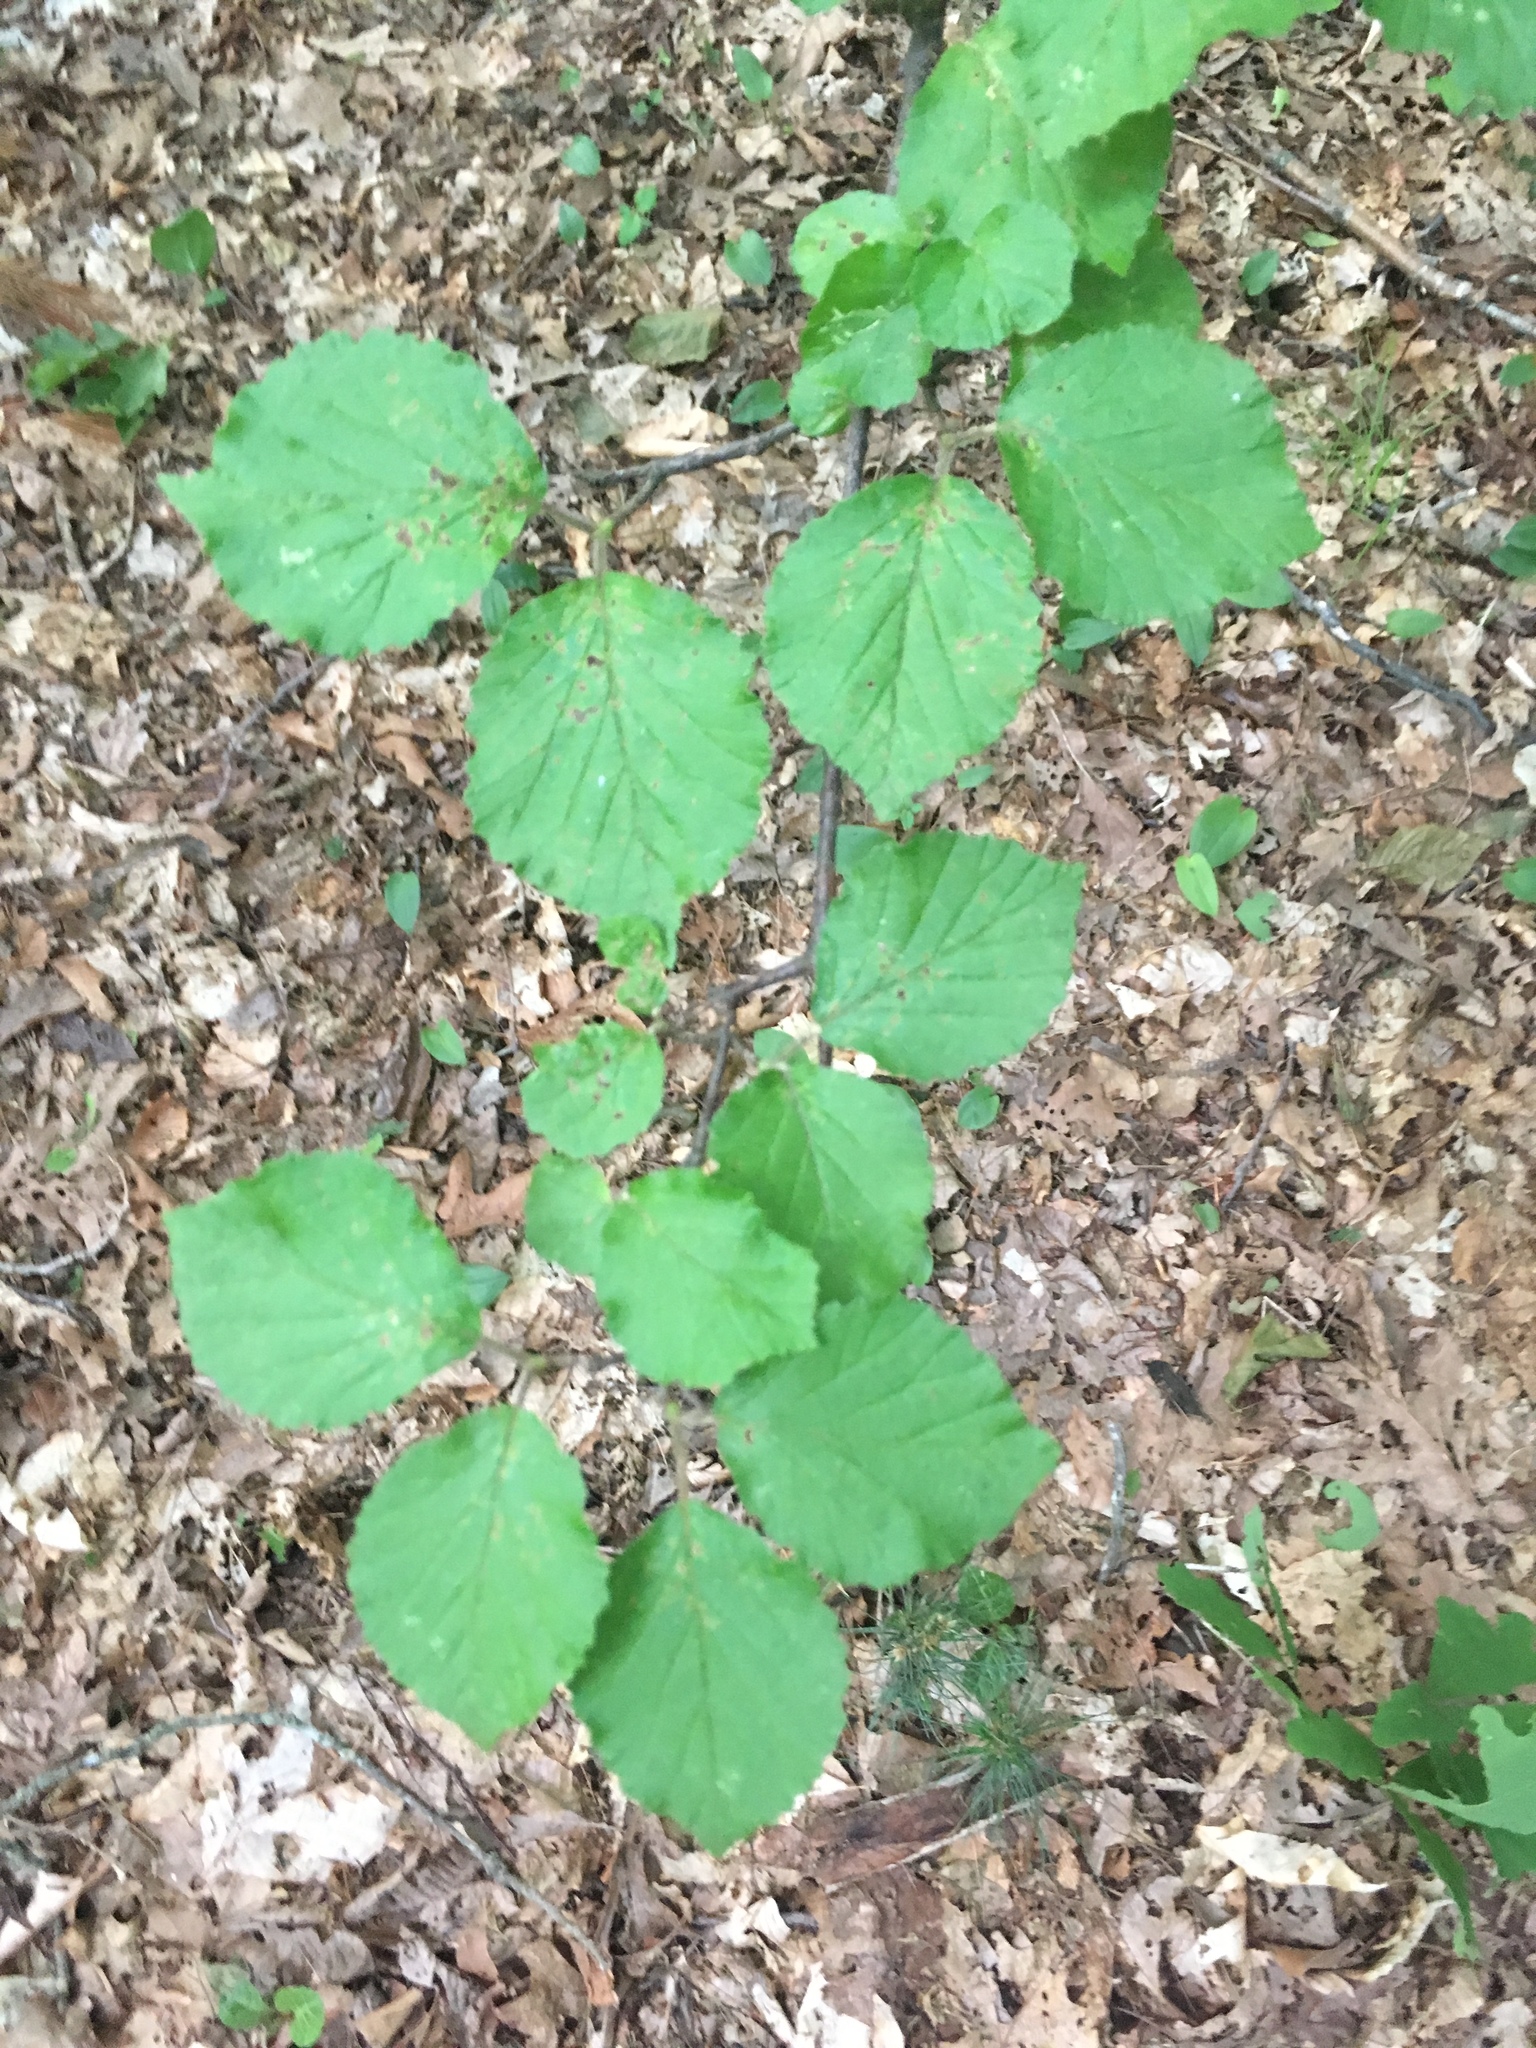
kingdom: Plantae
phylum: Tracheophyta
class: Magnoliopsida
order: Dipsacales
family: Viburnaceae
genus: Viburnum
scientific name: Viburnum dilatatum
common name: Linden arrowwood
